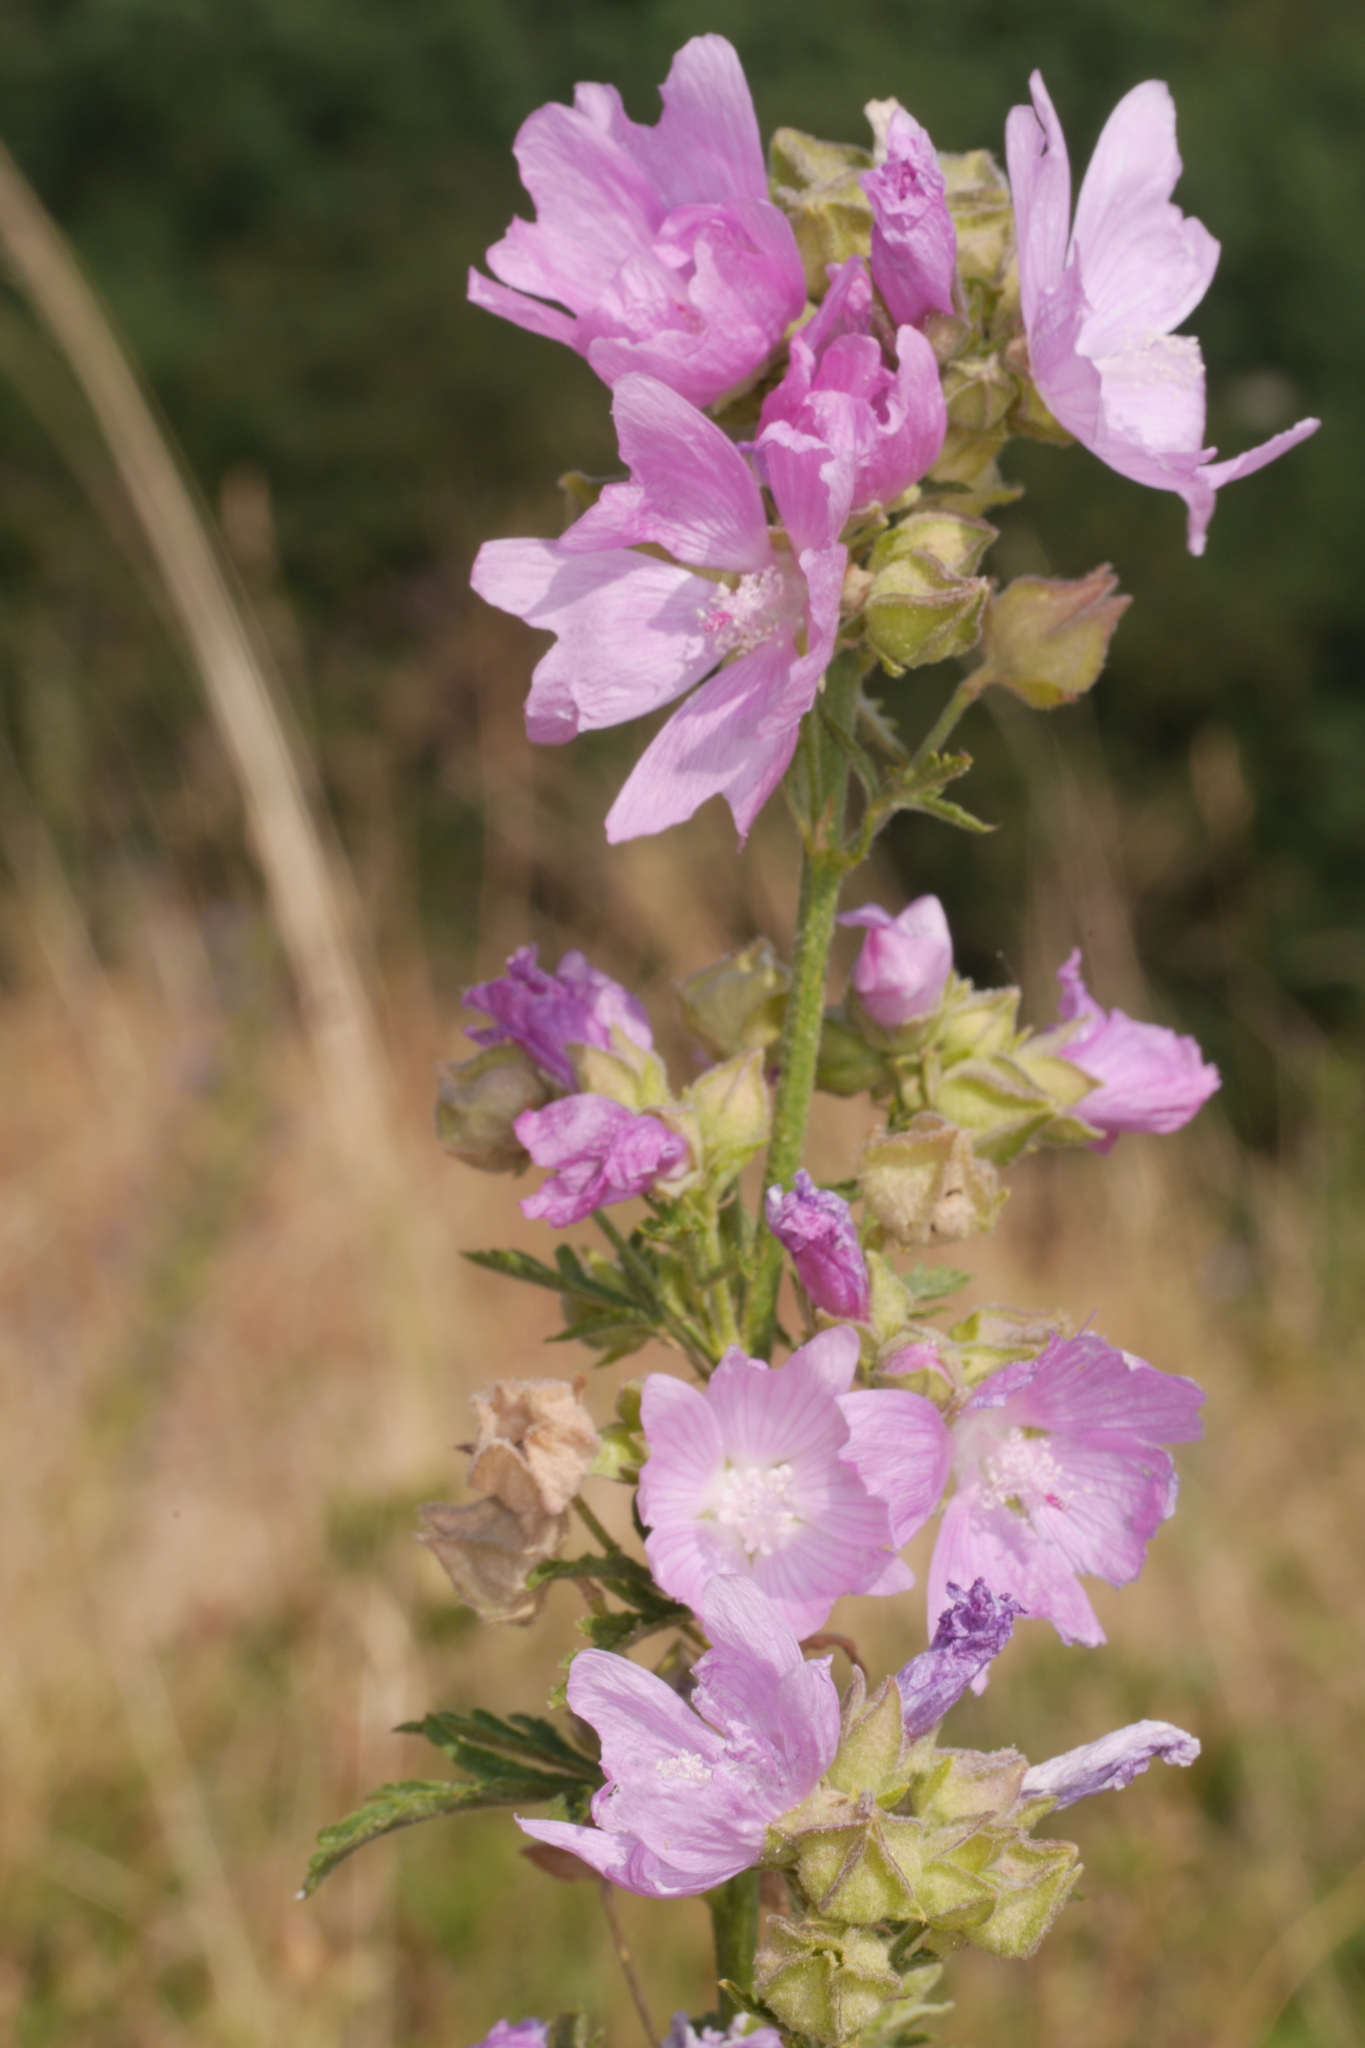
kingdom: Plantae
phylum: Tracheophyta
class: Magnoliopsida
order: Malvales
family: Malvaceae
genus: Malva
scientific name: Malva moschata
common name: Musk mallow
